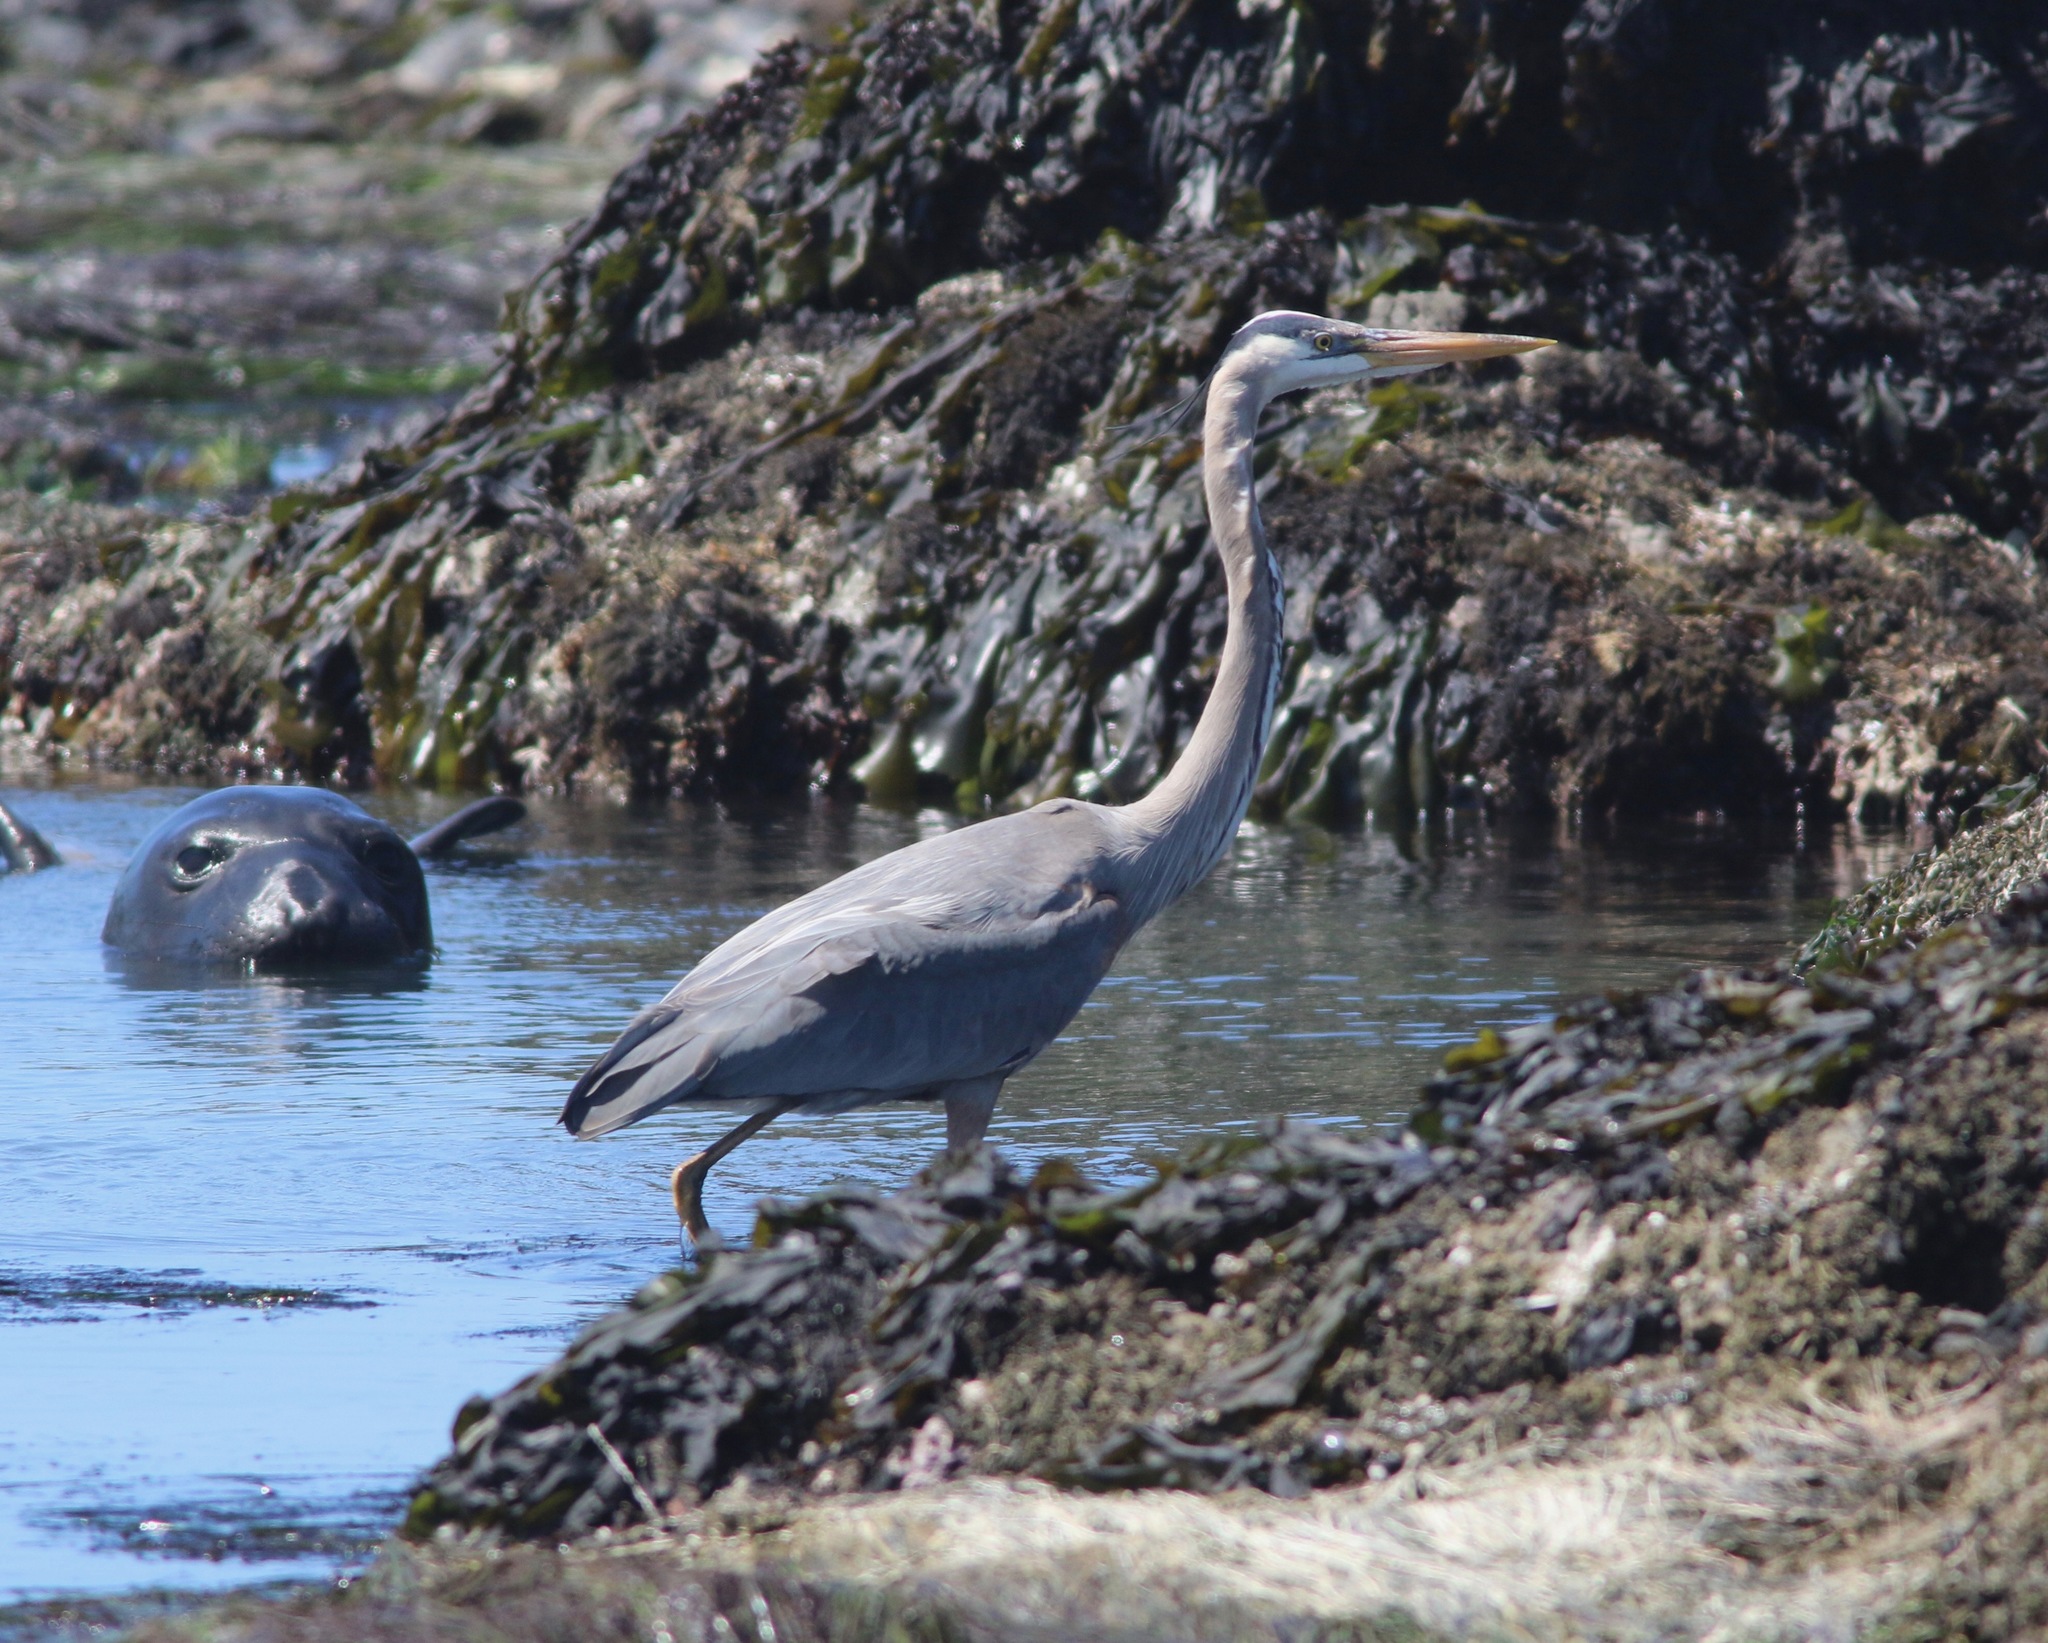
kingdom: Animalia
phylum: Chordata
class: Aves
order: Pelecaniformes
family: Ardeidae
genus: Ardea
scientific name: Ardea herodias
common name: Great blue heron
